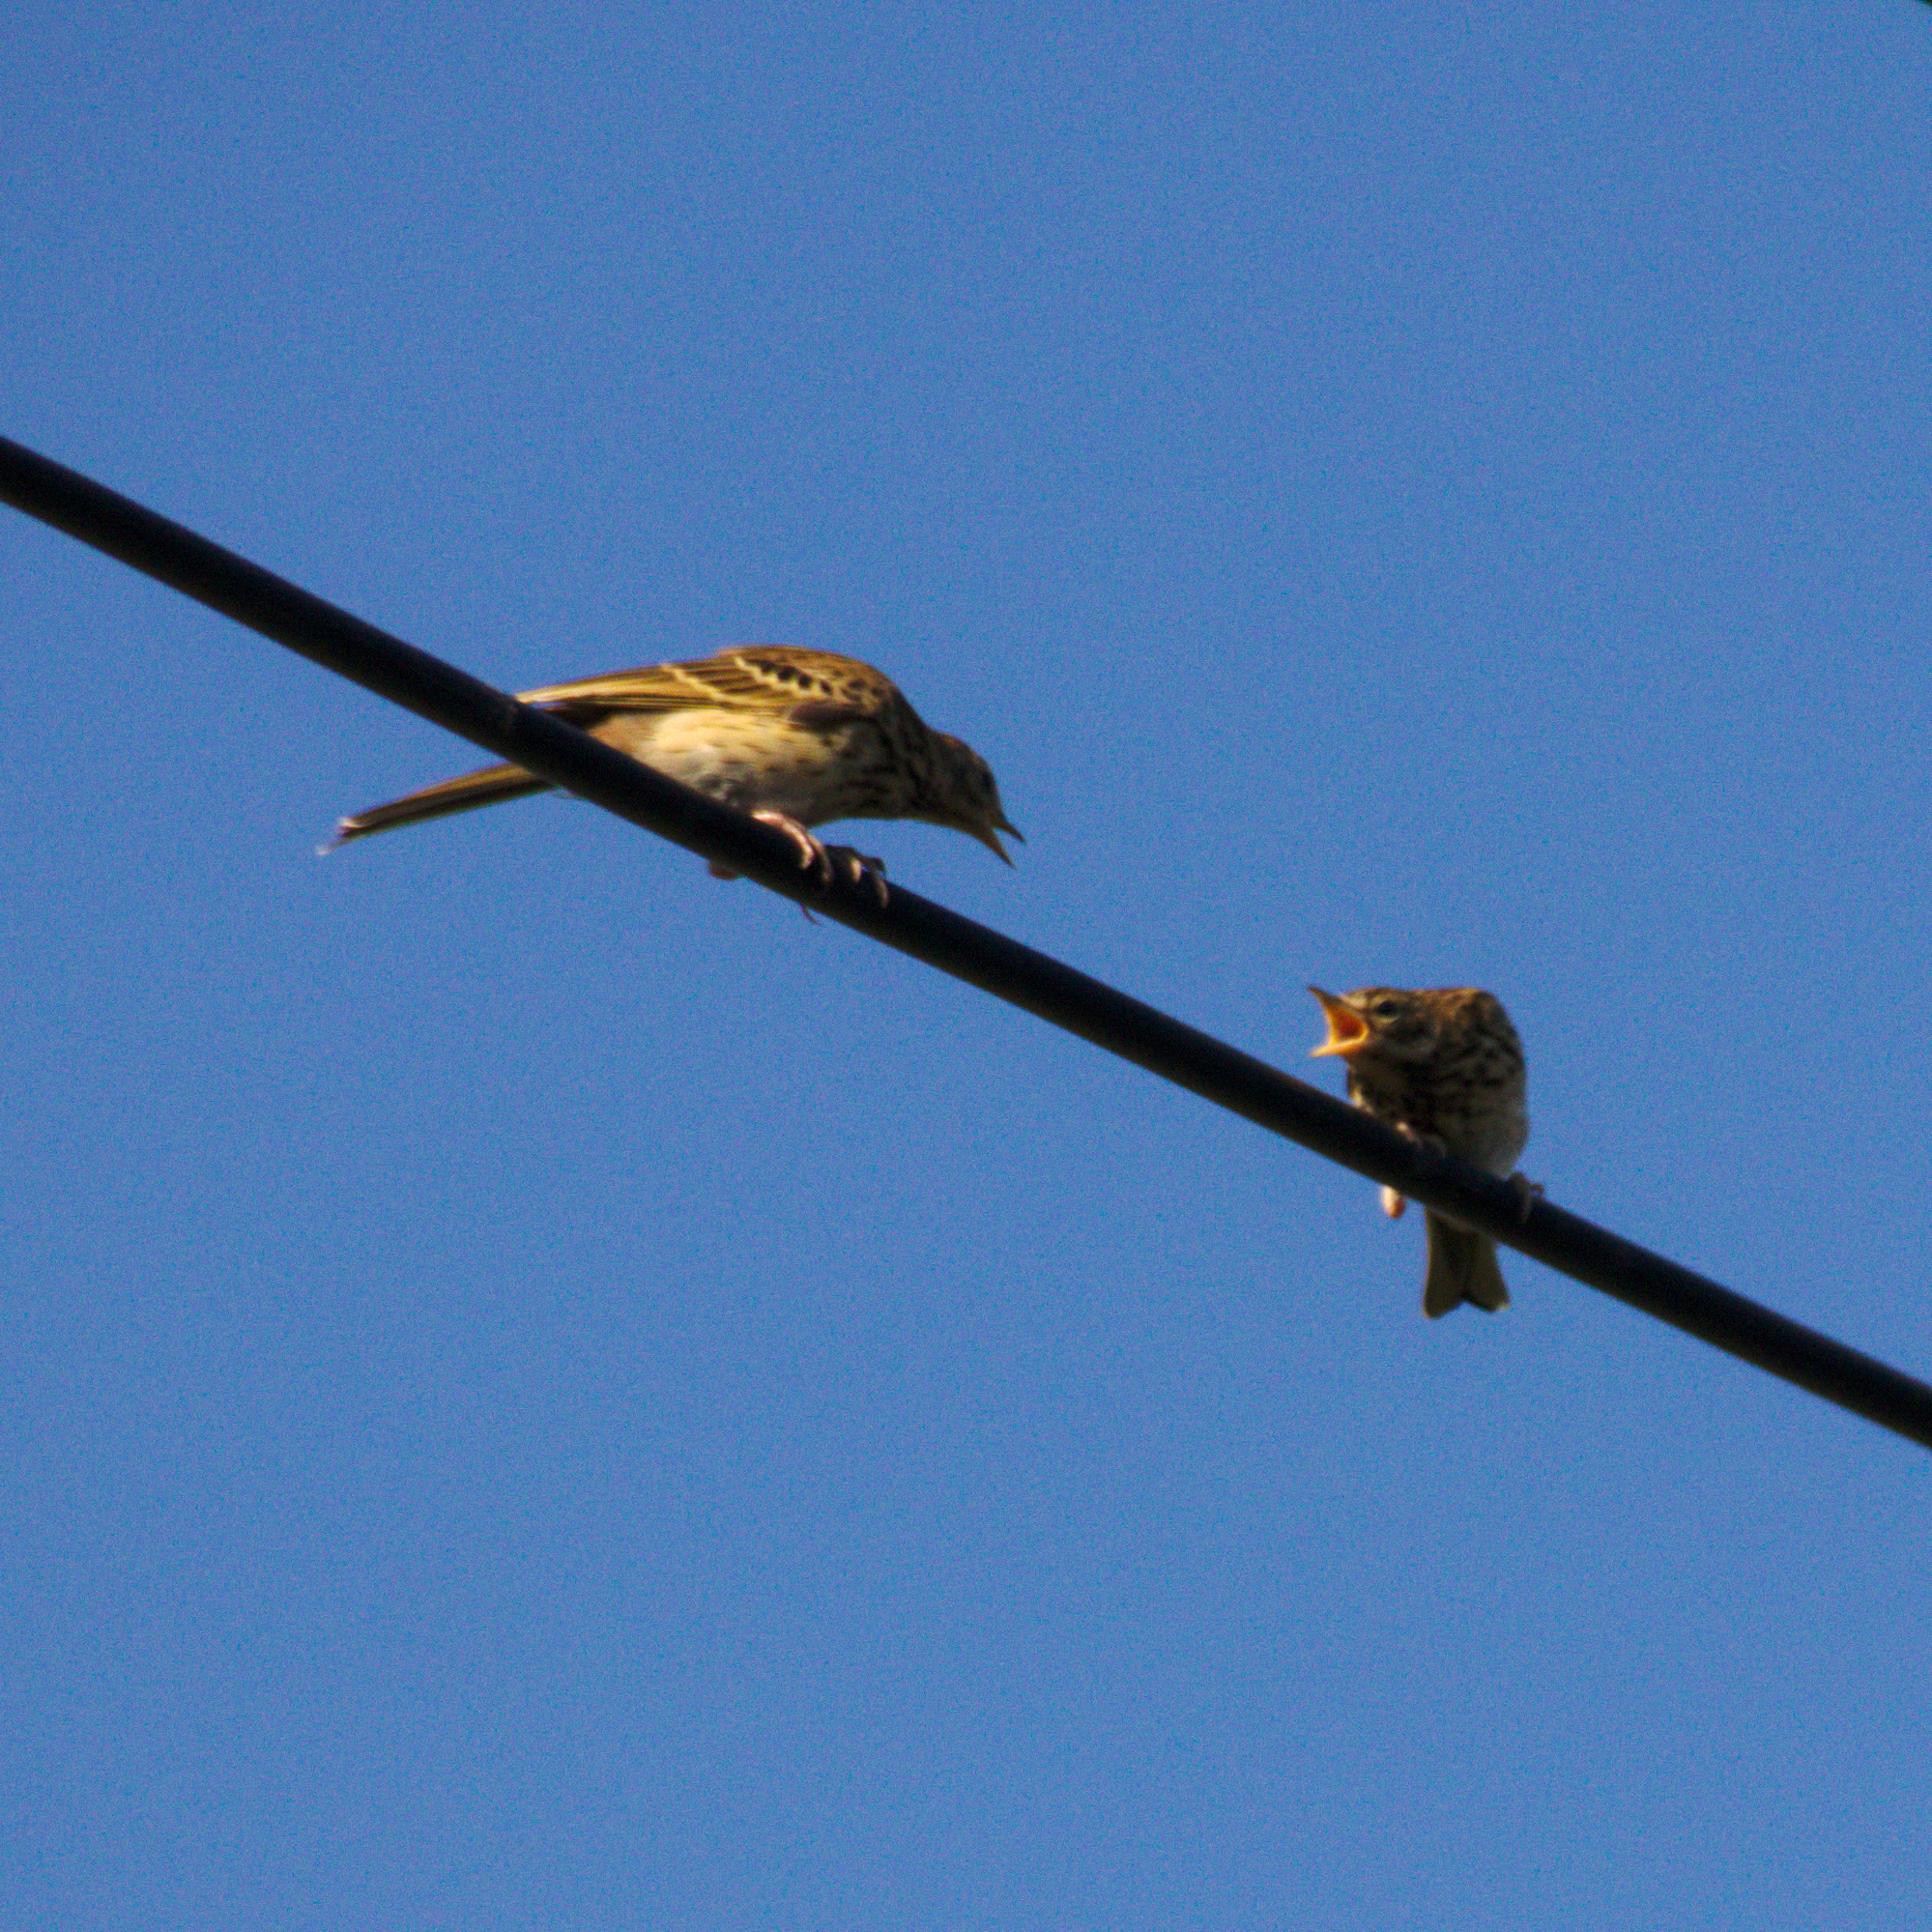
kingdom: Animalia
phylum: Chordata
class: Aves
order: Passeriformes
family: Motacillidae
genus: Anthus
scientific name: Anthus trivialis
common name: Tree pipit
